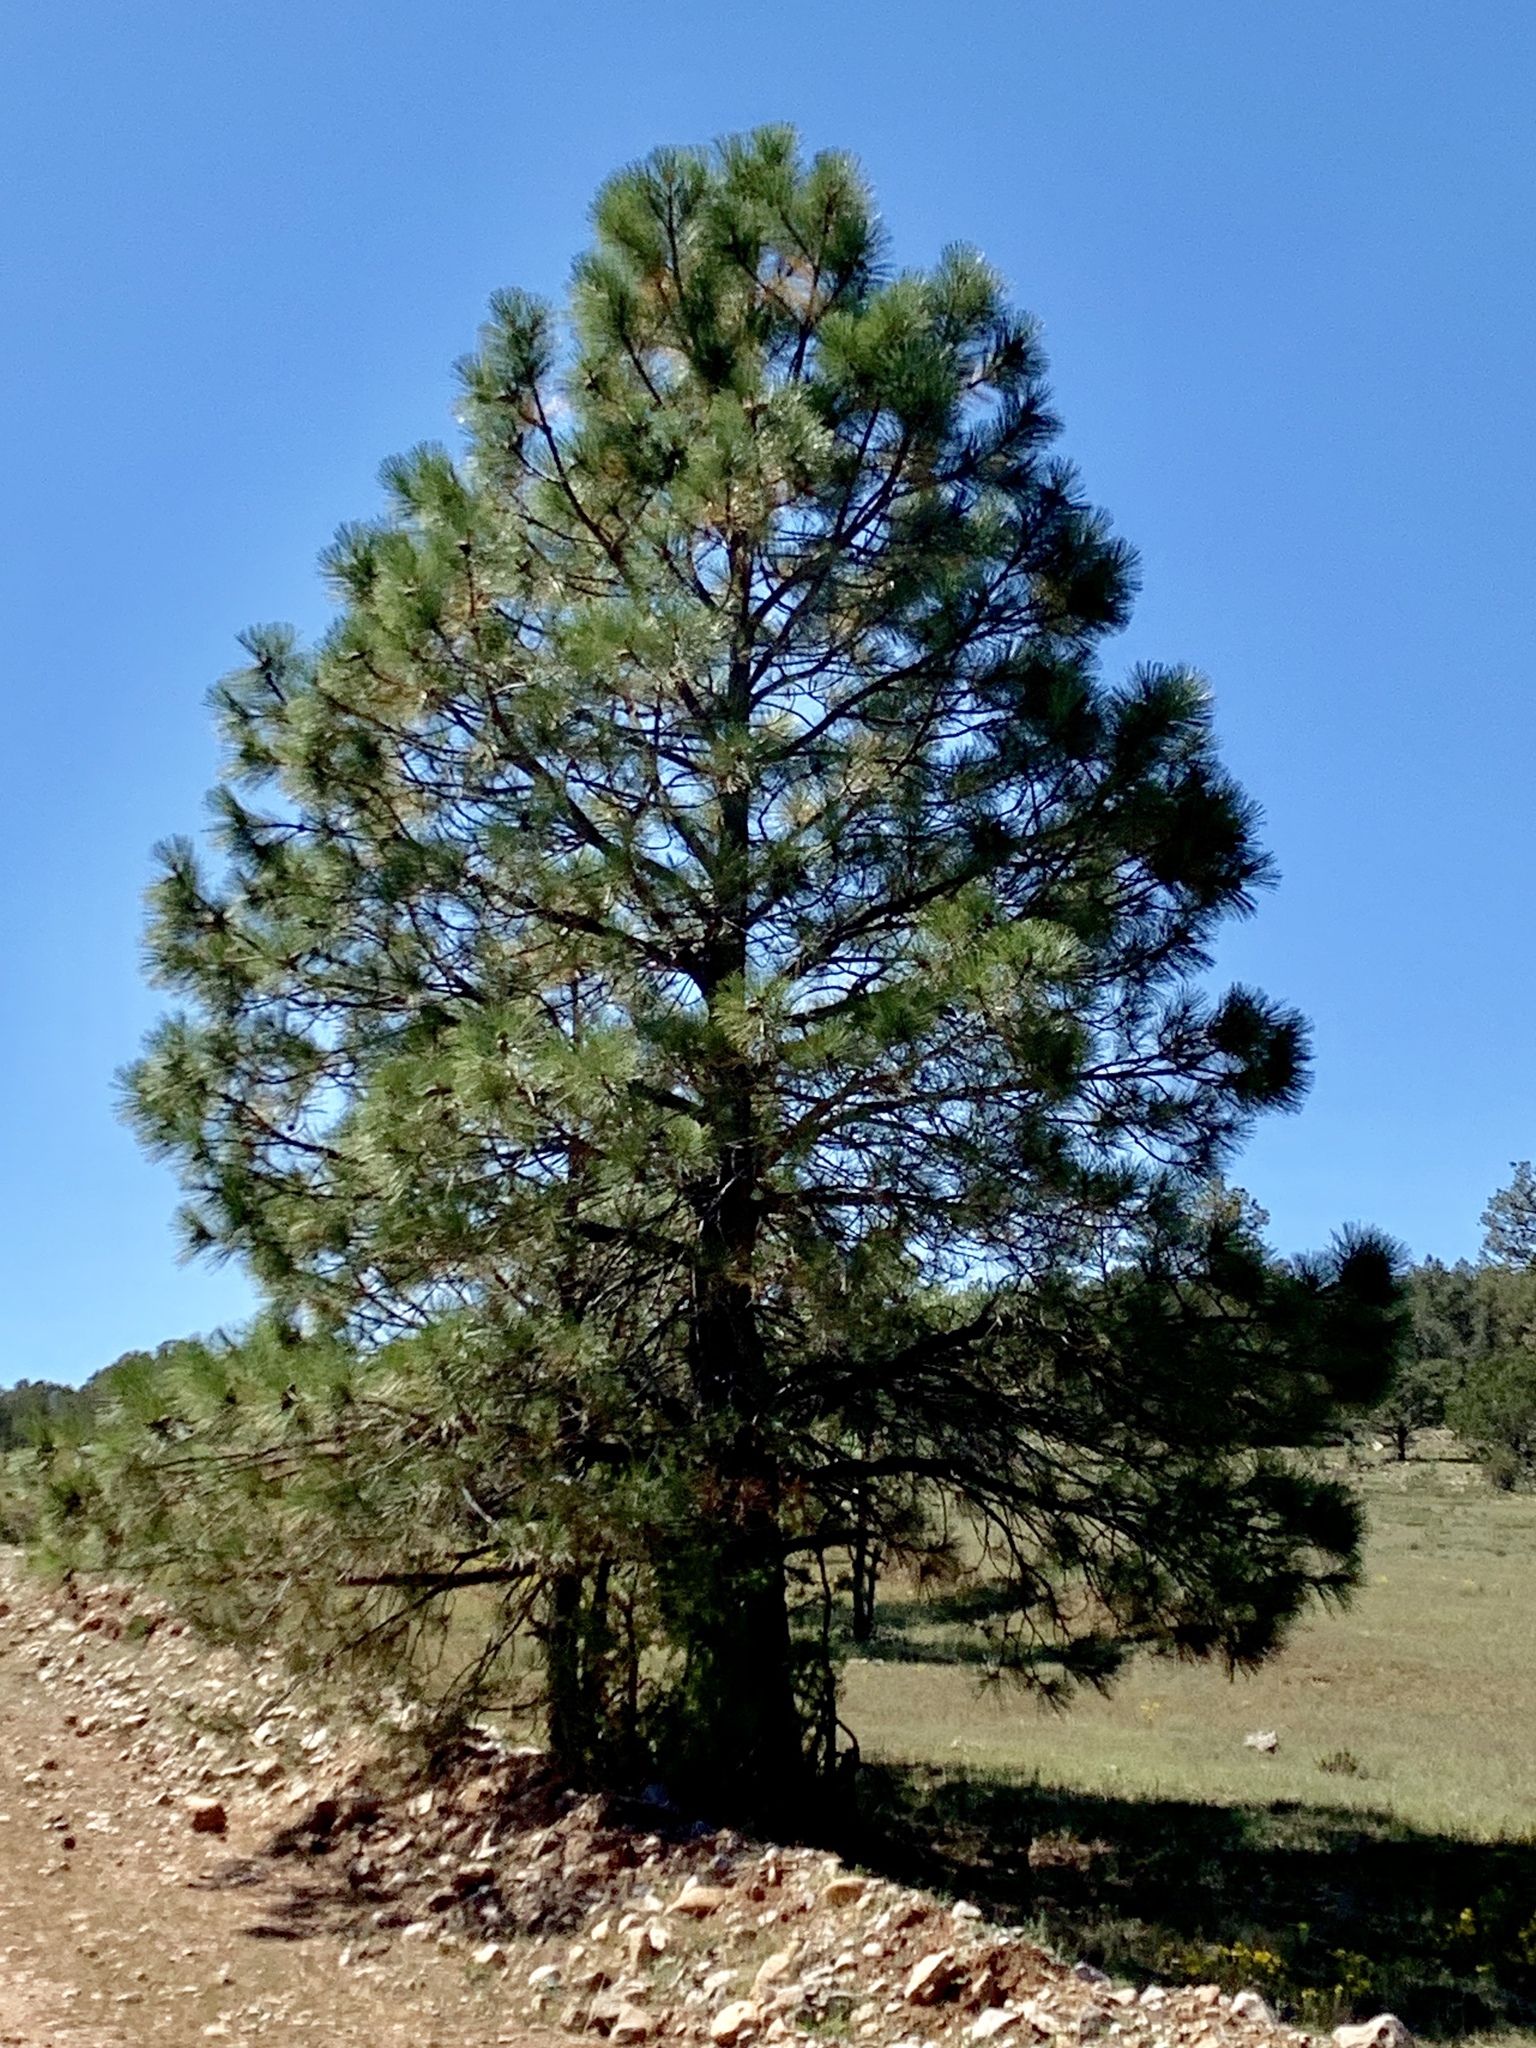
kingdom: Plantae
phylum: Tracheophyta
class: Pinopsida
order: Pinales
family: Pinaceae
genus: Pinus
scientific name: Pinus ponderosa
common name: Western yellow-pine
